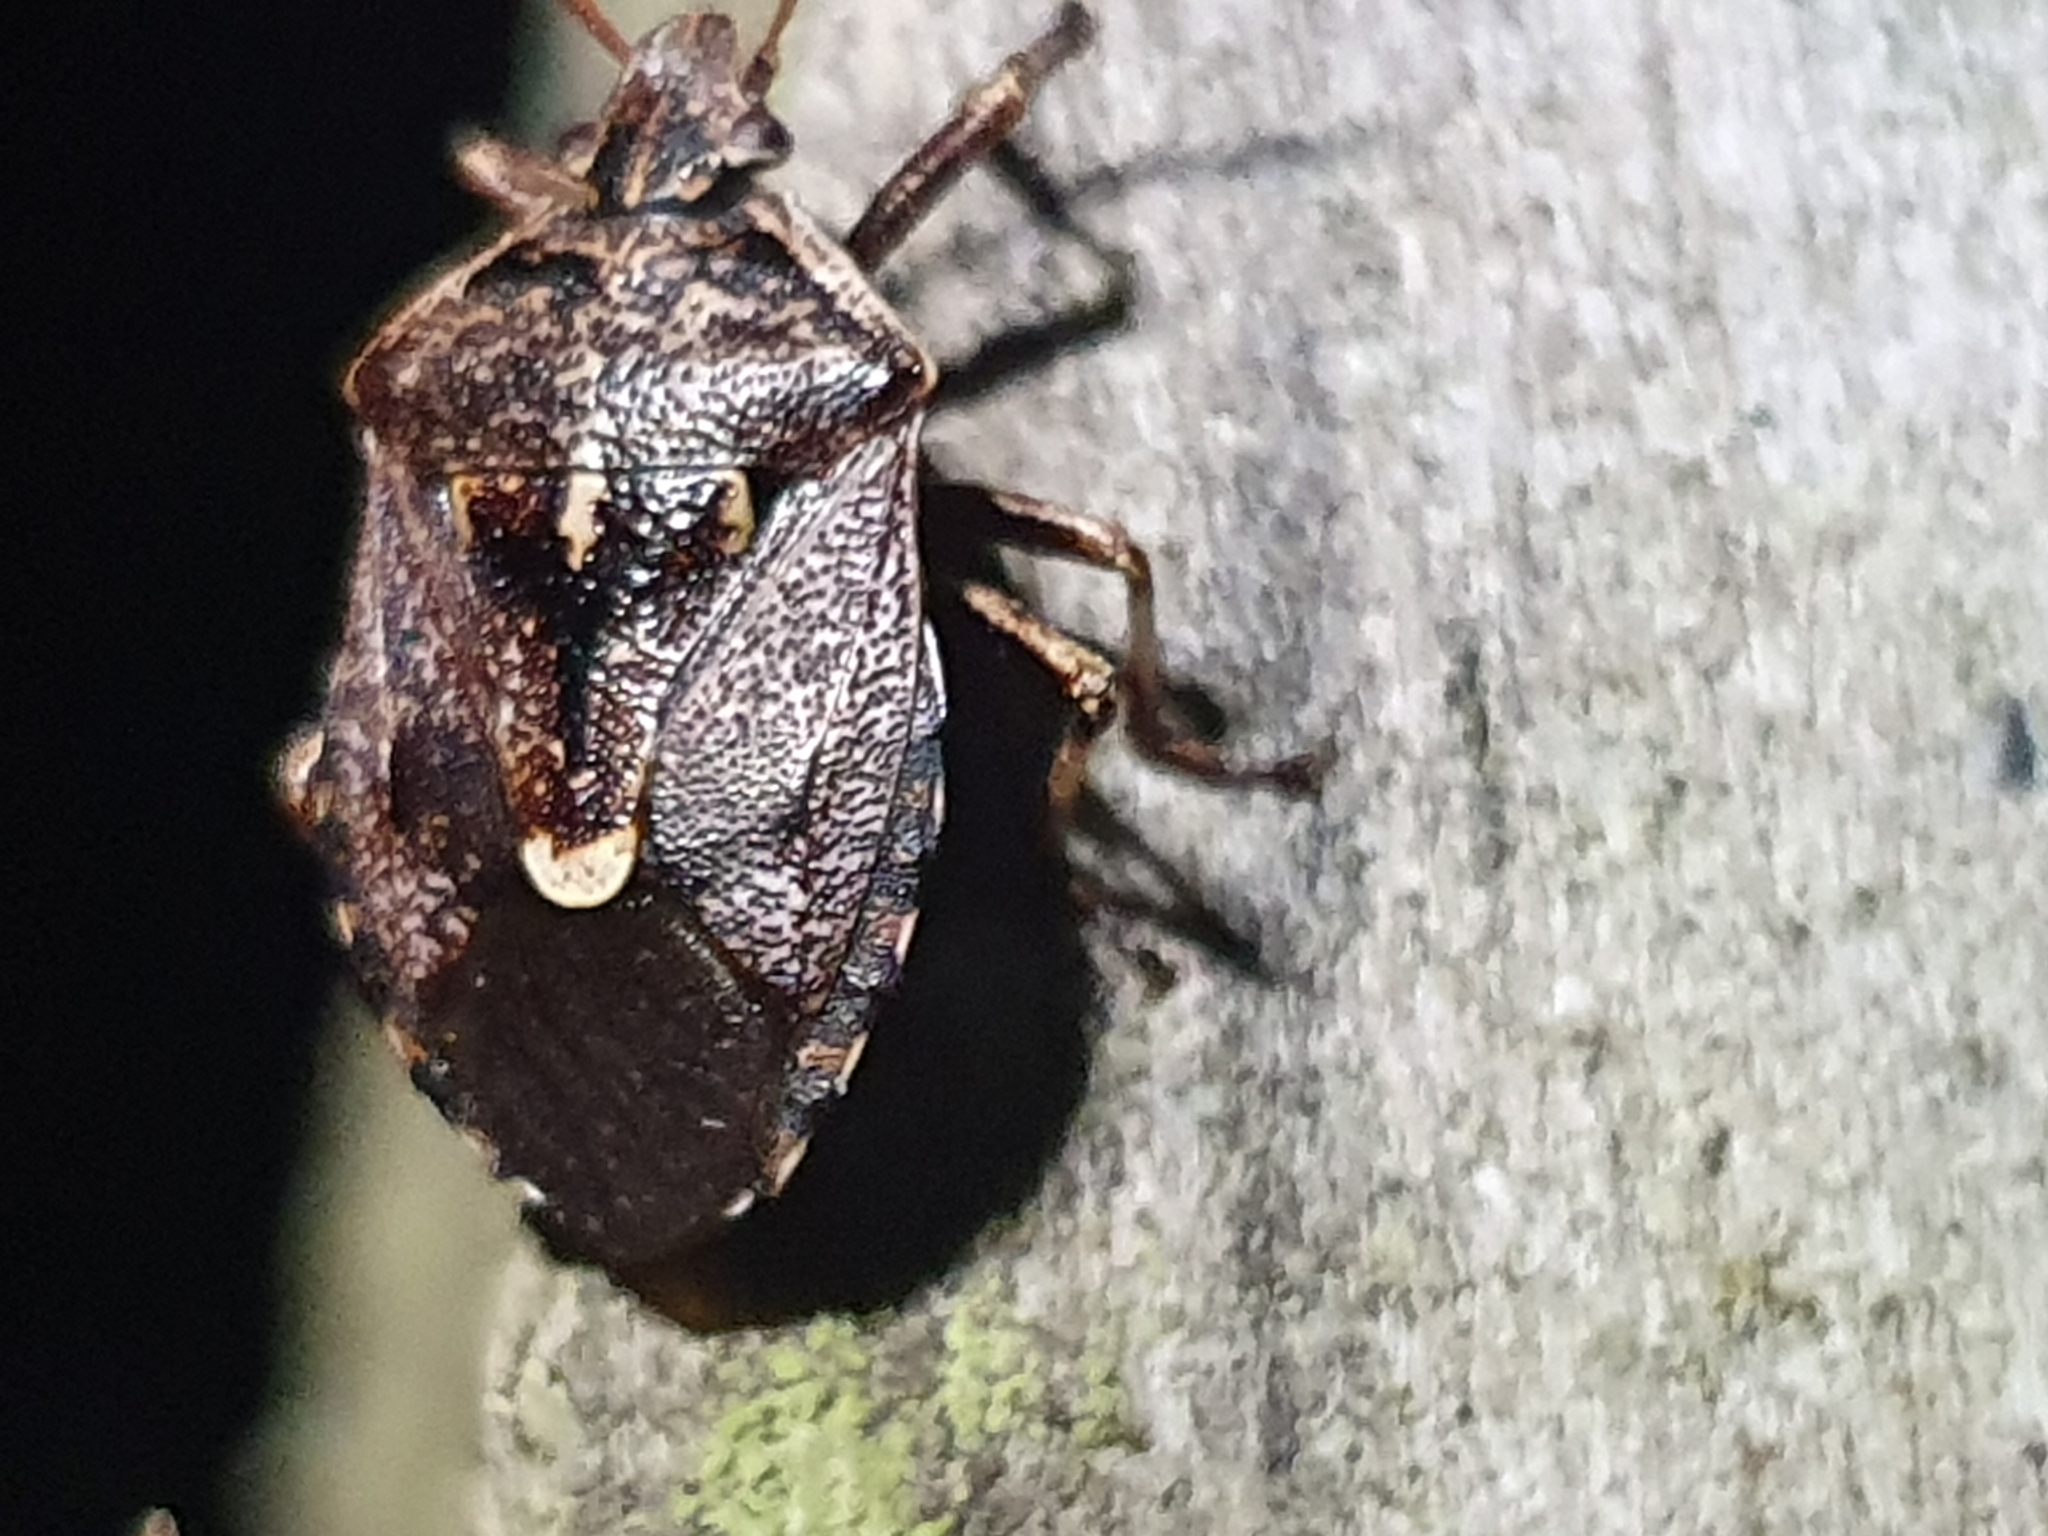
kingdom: Animalia
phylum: Arthropoda
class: Insecta
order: Hemiptera
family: Pentatomidae
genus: Cermatulus
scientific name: Cermatulus nasalis
